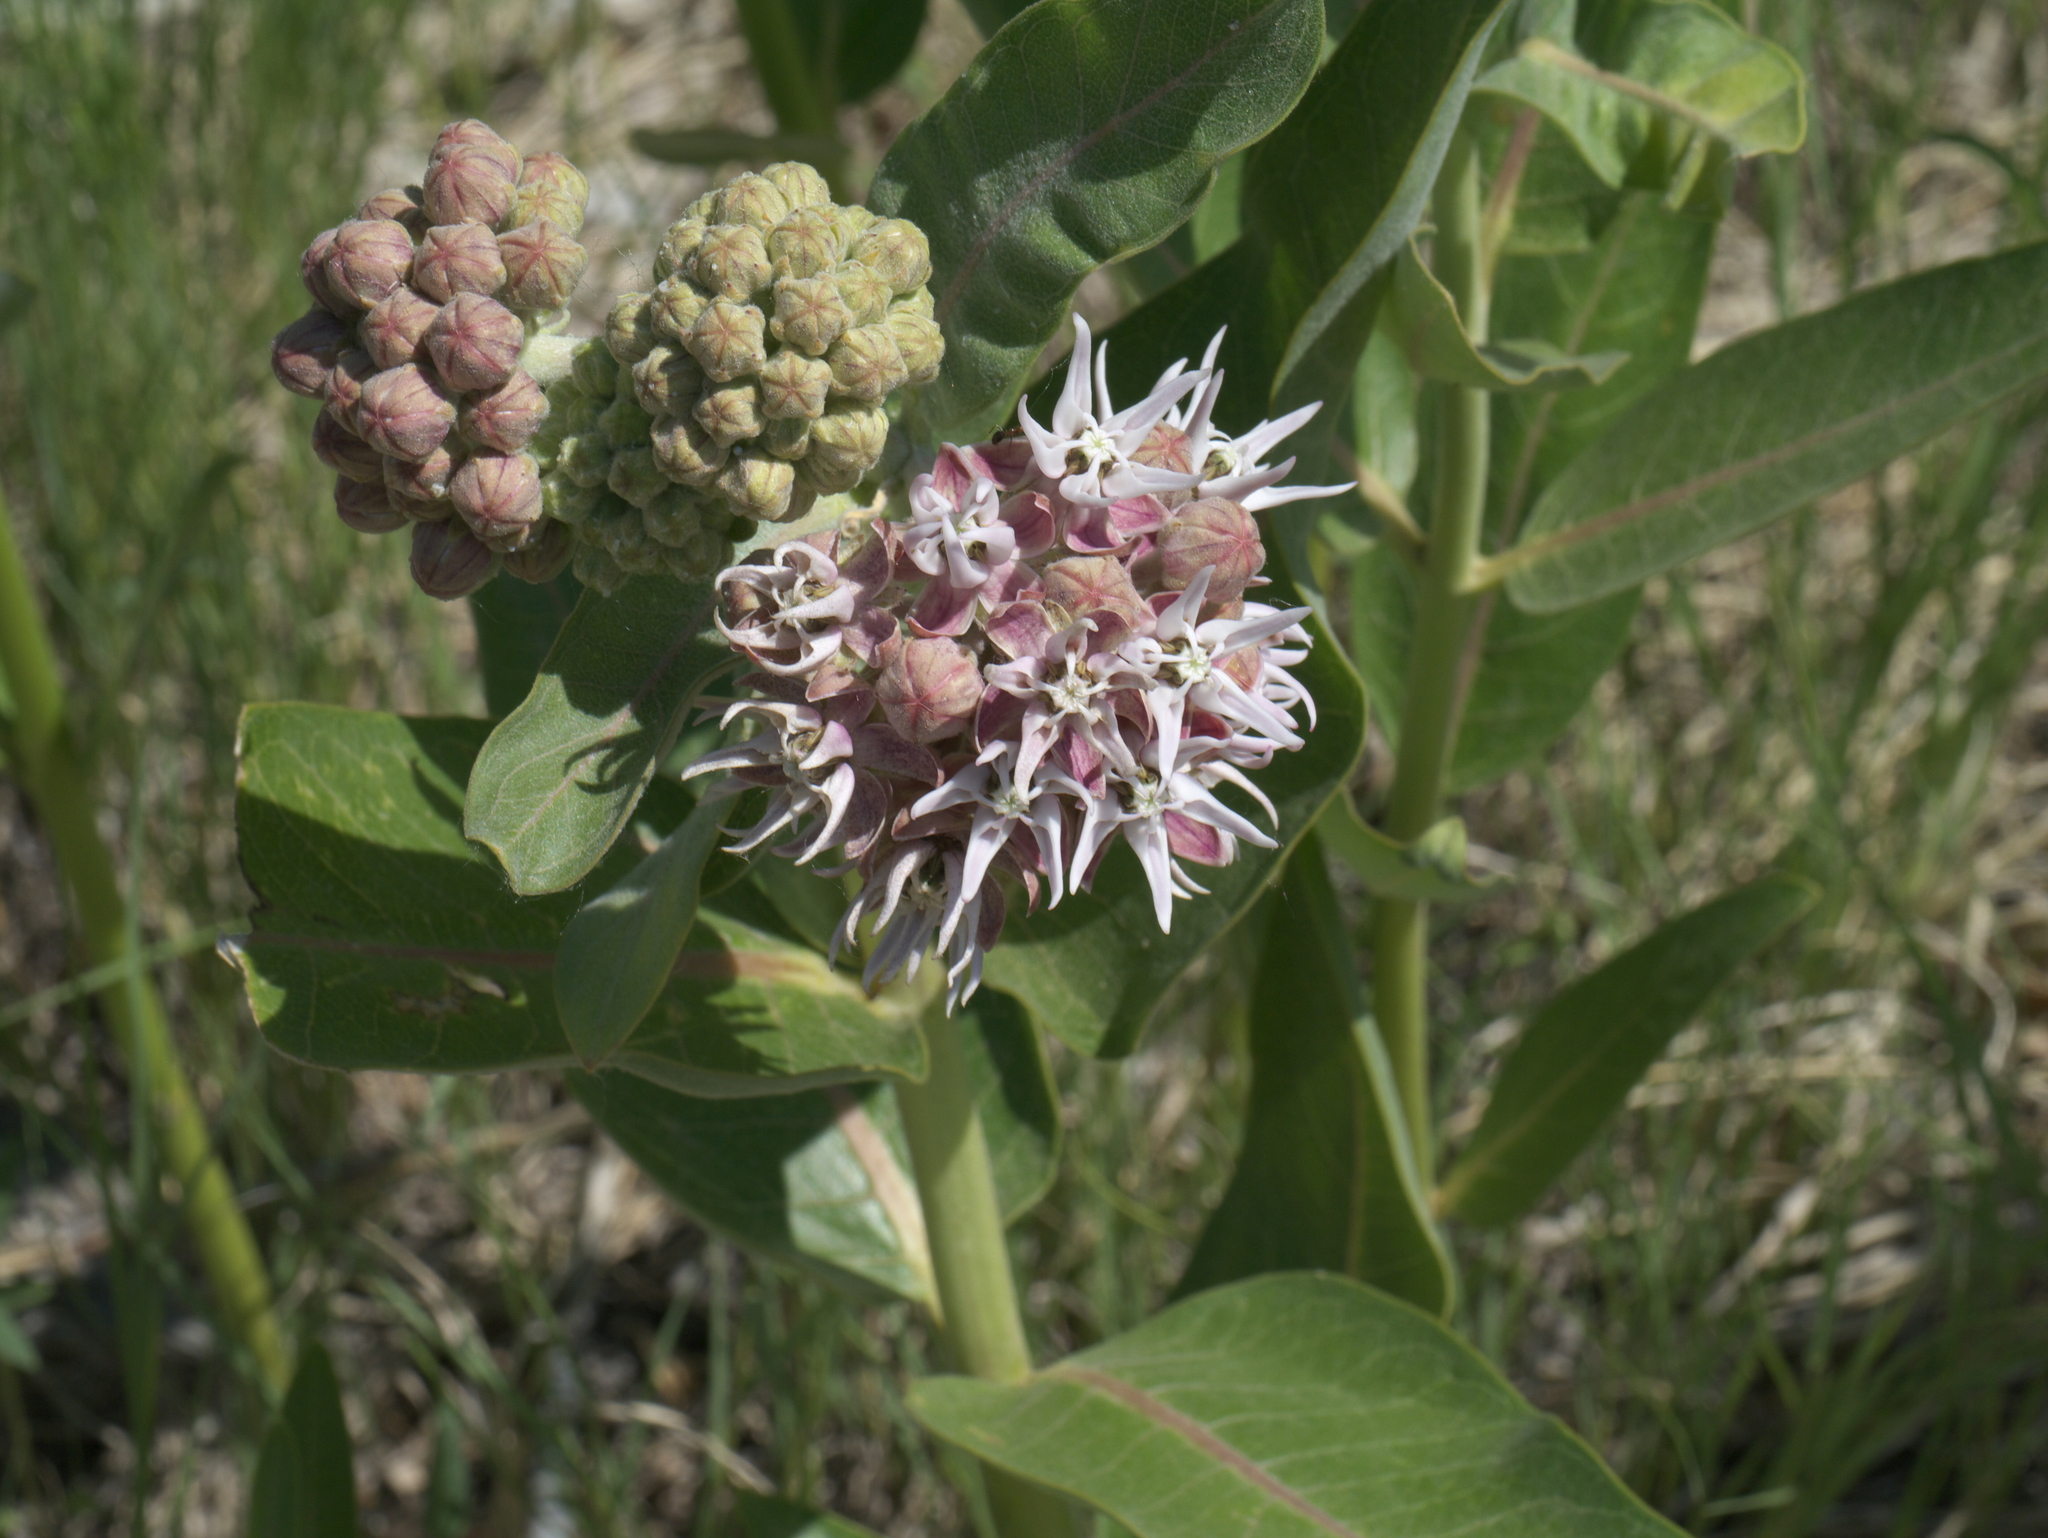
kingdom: Plantae
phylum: Tracheophyta
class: Magnoliopsida
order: Gentianales
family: Apocynaceae
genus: Asclepias
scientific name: Asclepias speciosa
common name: Showy milkweed
